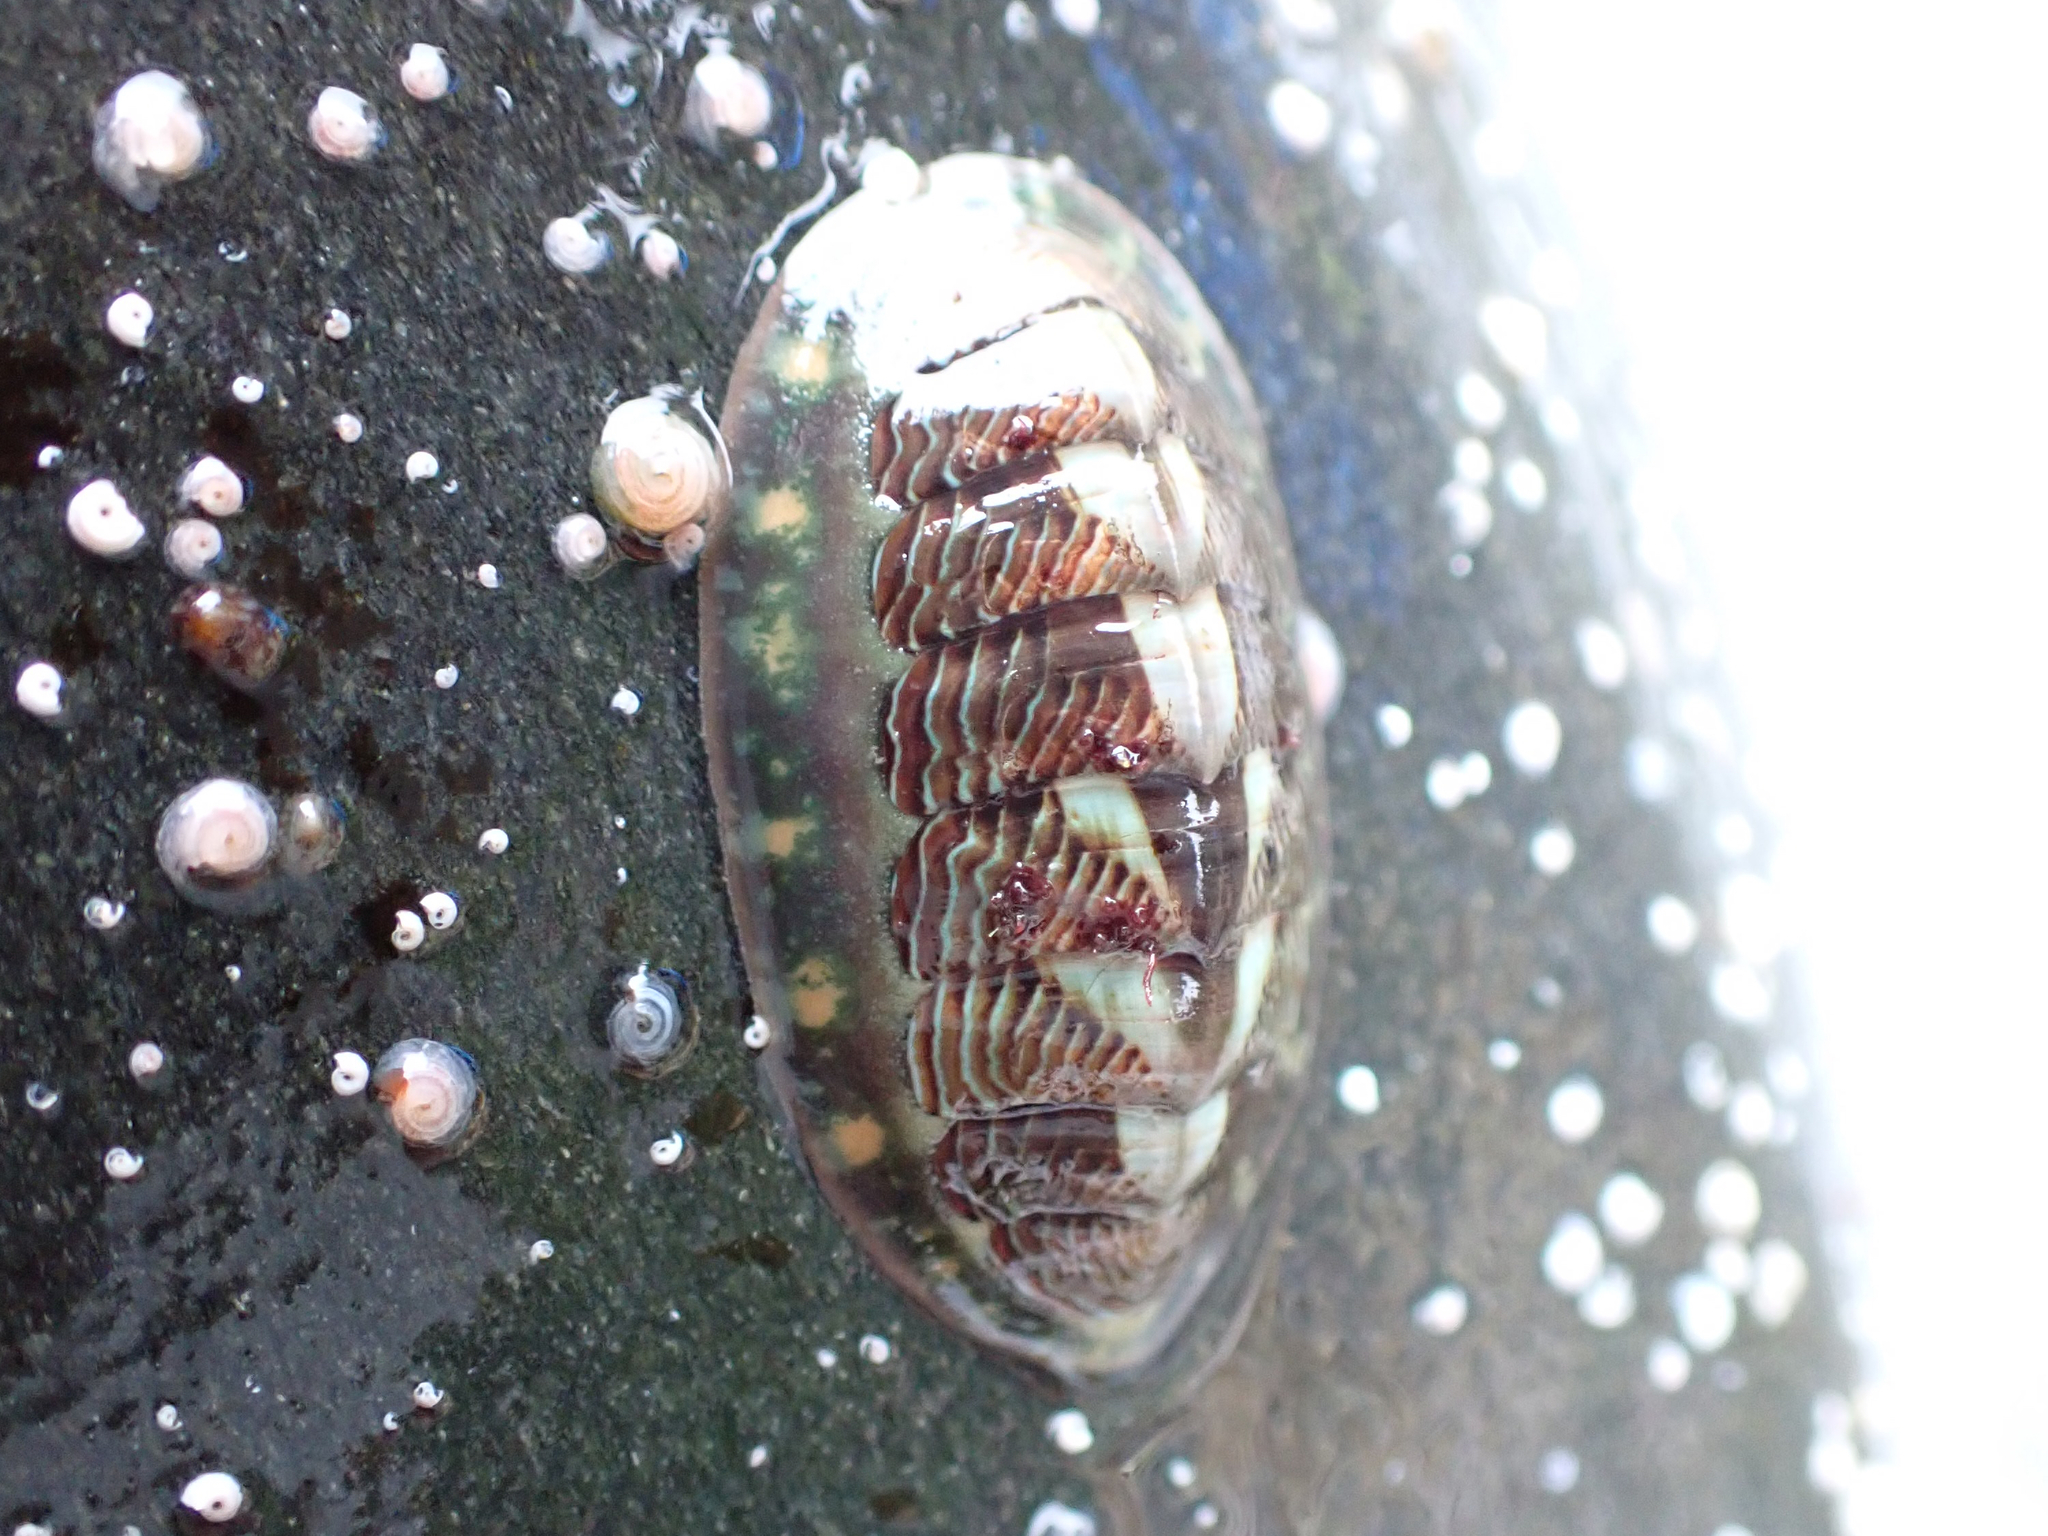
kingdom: Animalia
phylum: Mollusca
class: Polyplacophora
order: Chitonida
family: Tonicellidae
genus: Tonicella
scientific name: Tonicella lineata
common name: Lined chiton
